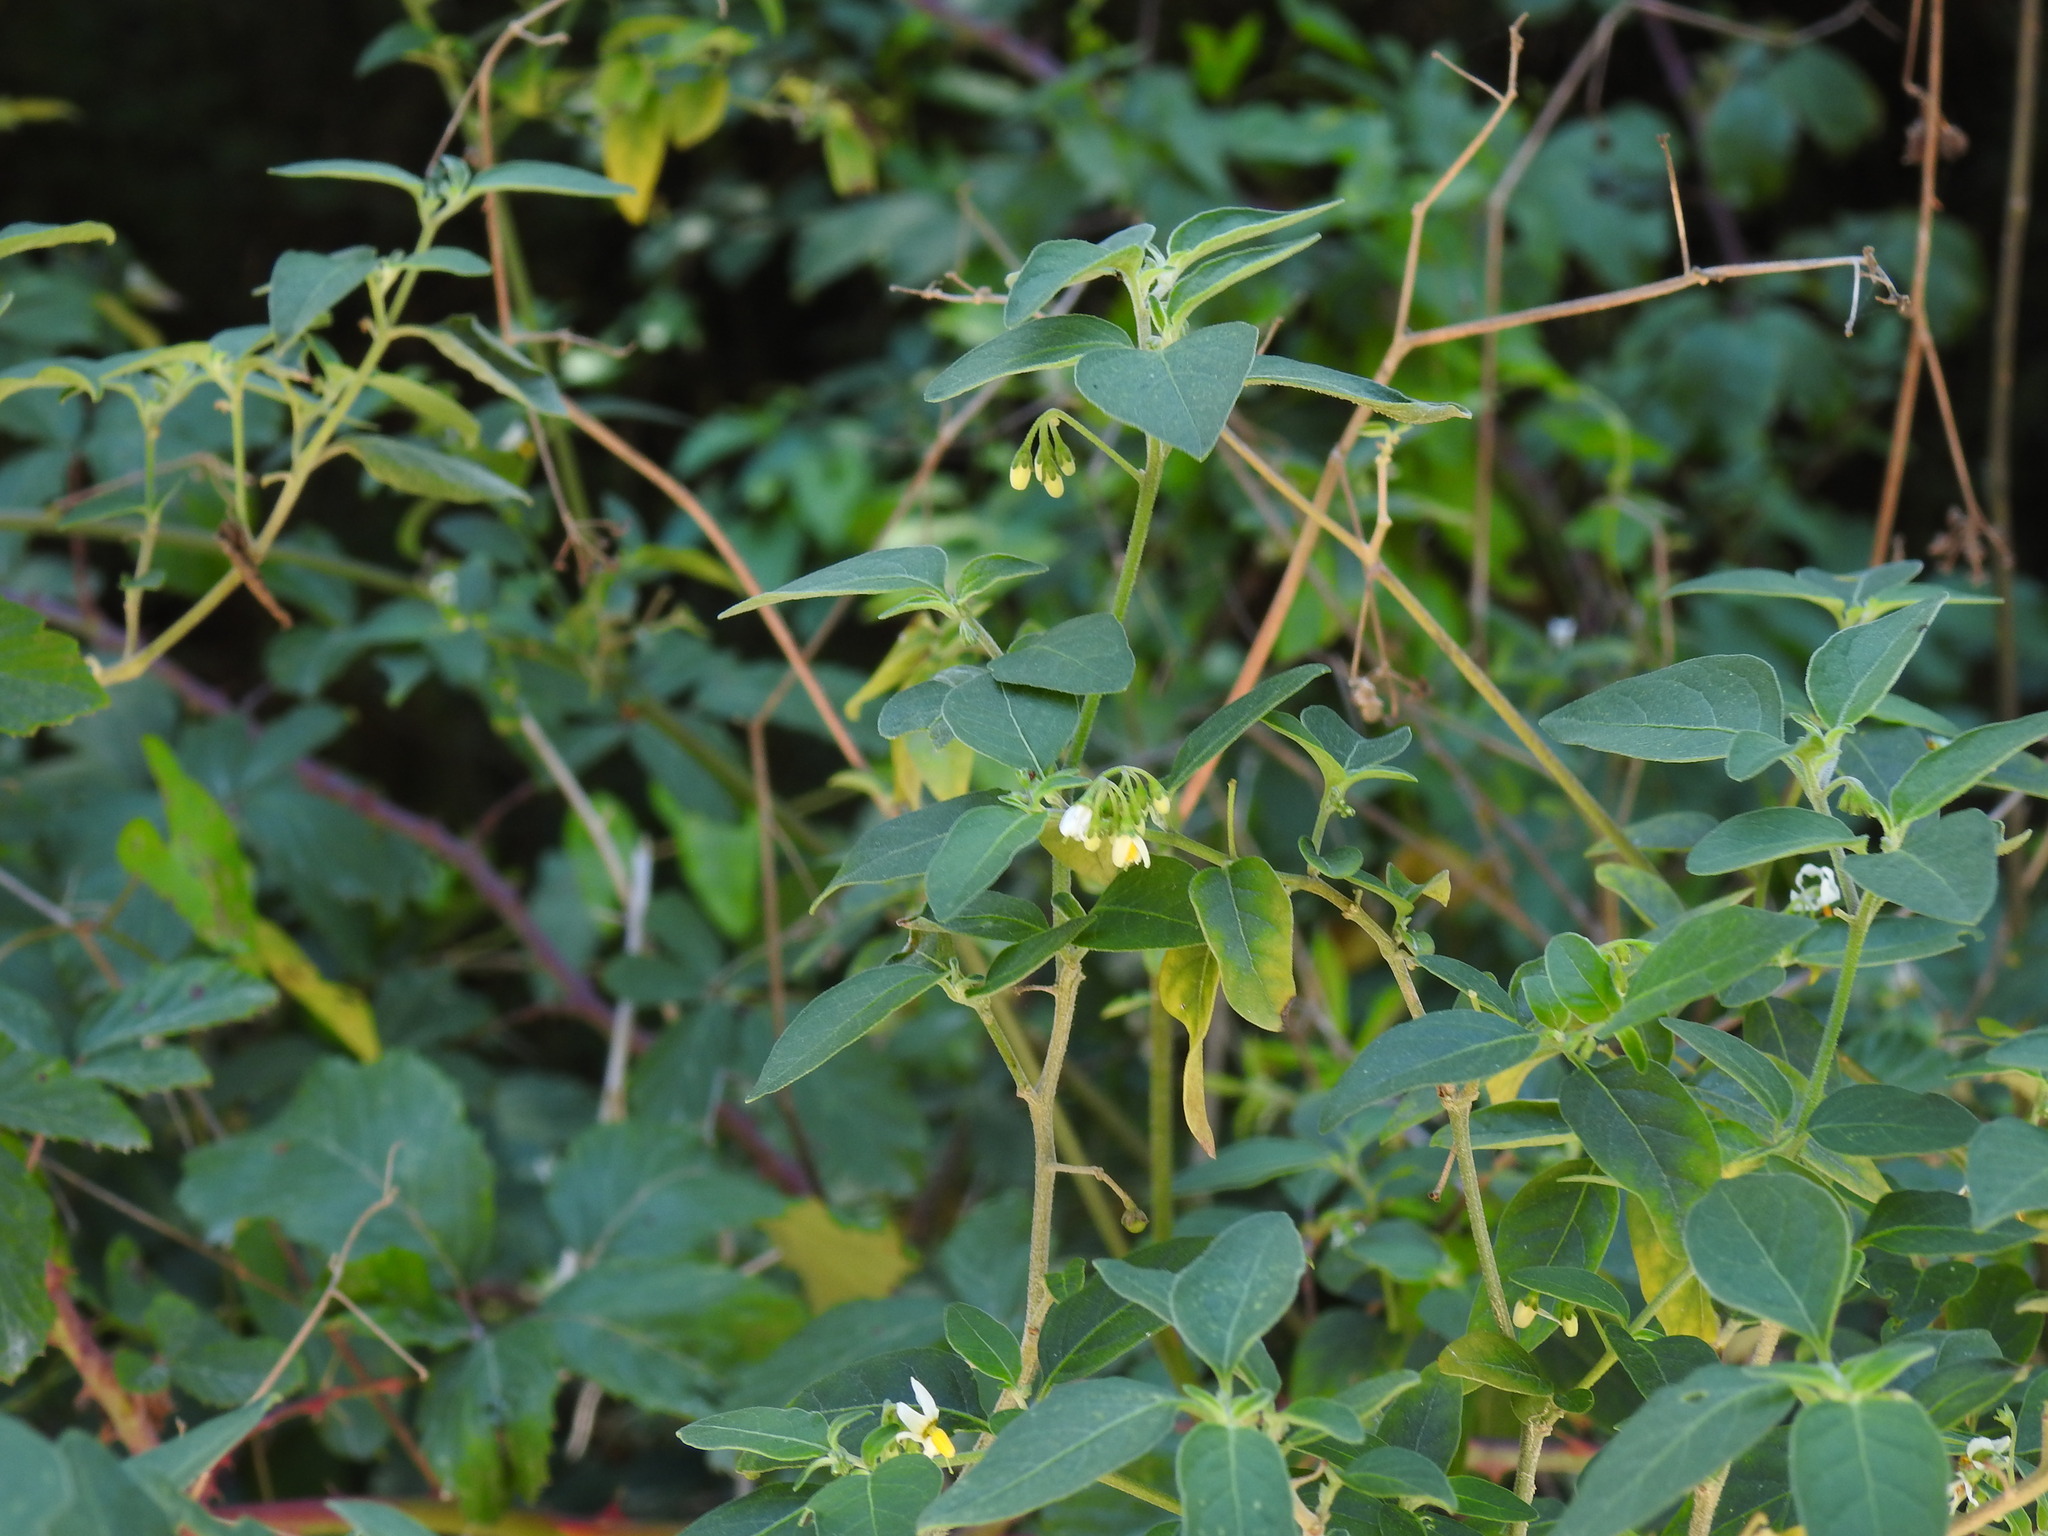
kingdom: Plantae
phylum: Tracheophyta
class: Magnoliopsida
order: Solanales
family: Solanaceae
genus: Solanum
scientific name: Solanum chenopodioides
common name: Tall nightshade
